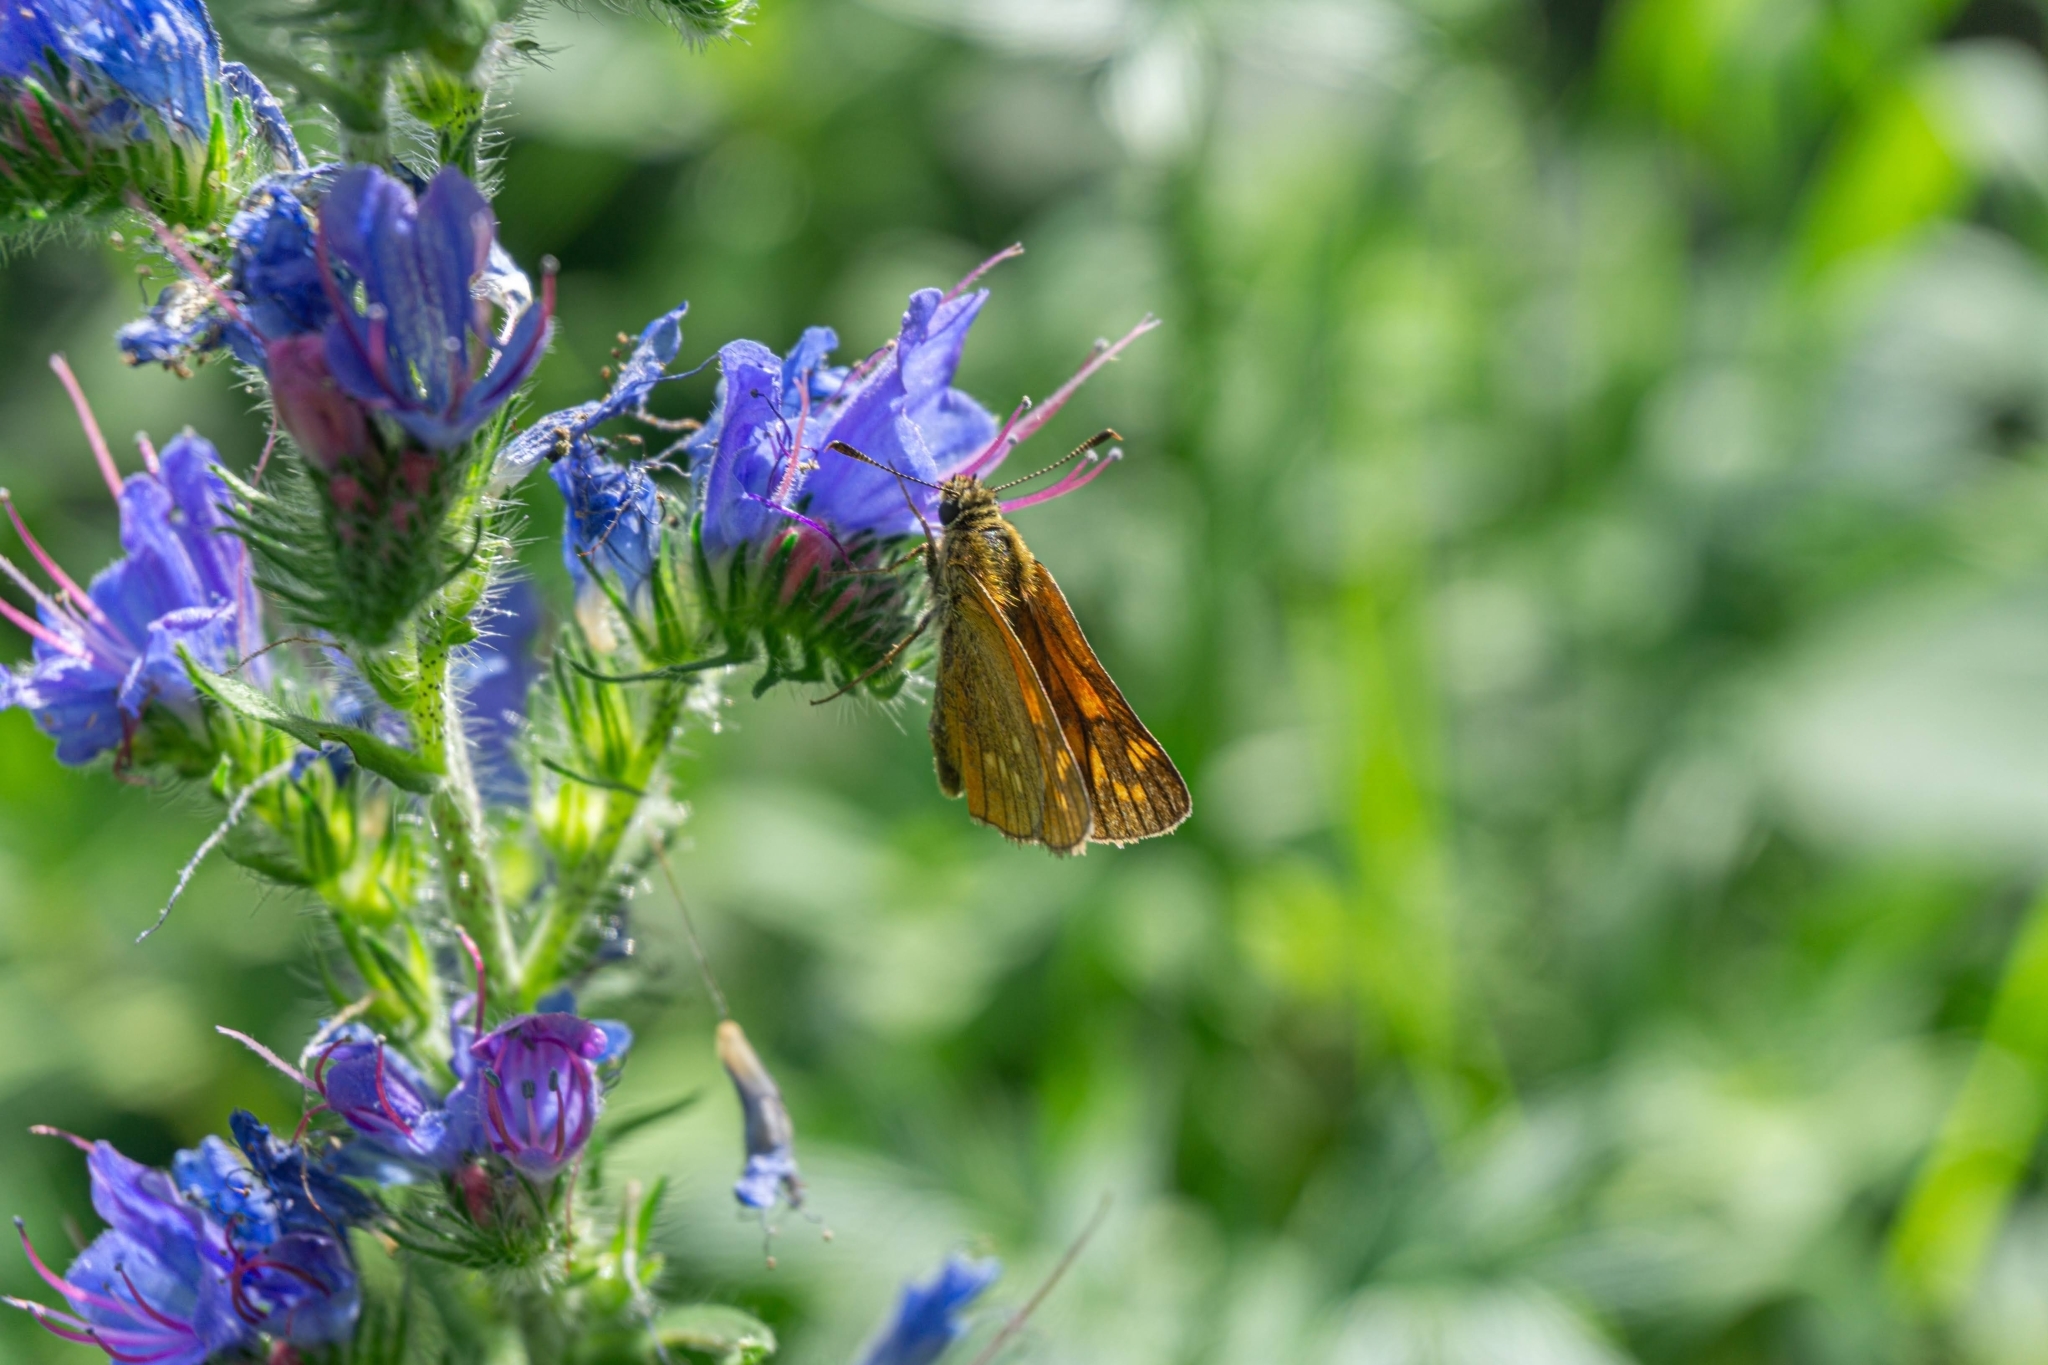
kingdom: Animalia
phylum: Arthropoda
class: Insecta
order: Lepidoptera
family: Hesperiidae
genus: Ochlodes
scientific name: Ochlodes venata
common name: Large skipper
